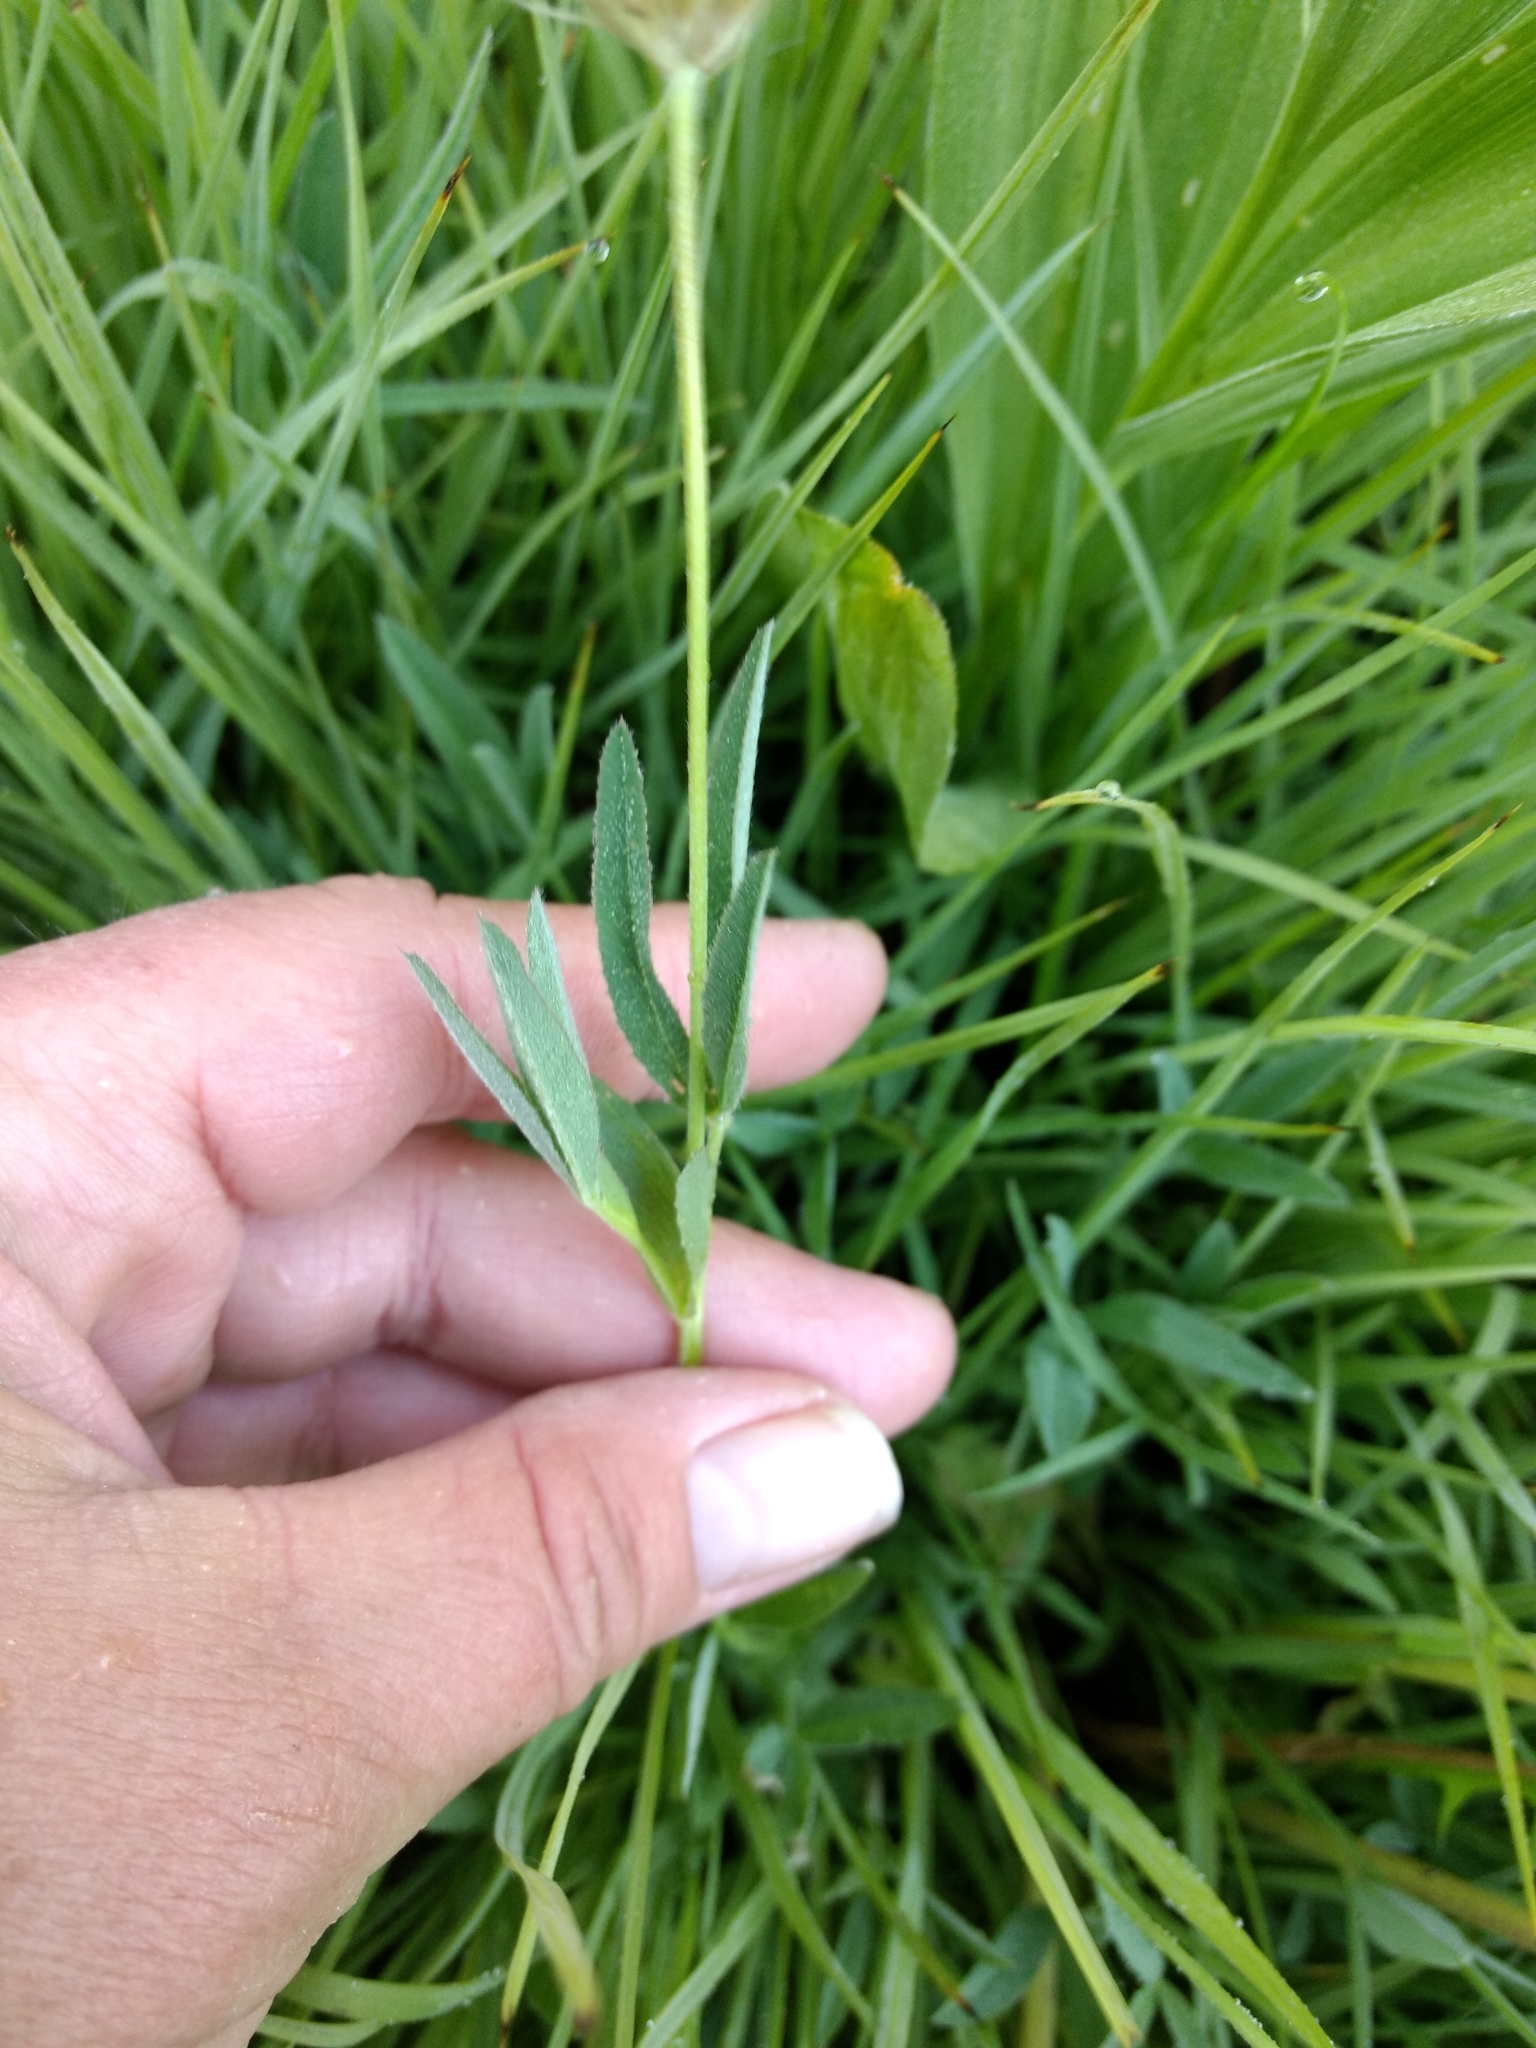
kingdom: Plantae
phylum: Tracheophyta
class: Magnoliopsida
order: Fabales
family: Fabaceae
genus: Trifolium
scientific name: Trifolium longipes
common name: Long-stalk clover
